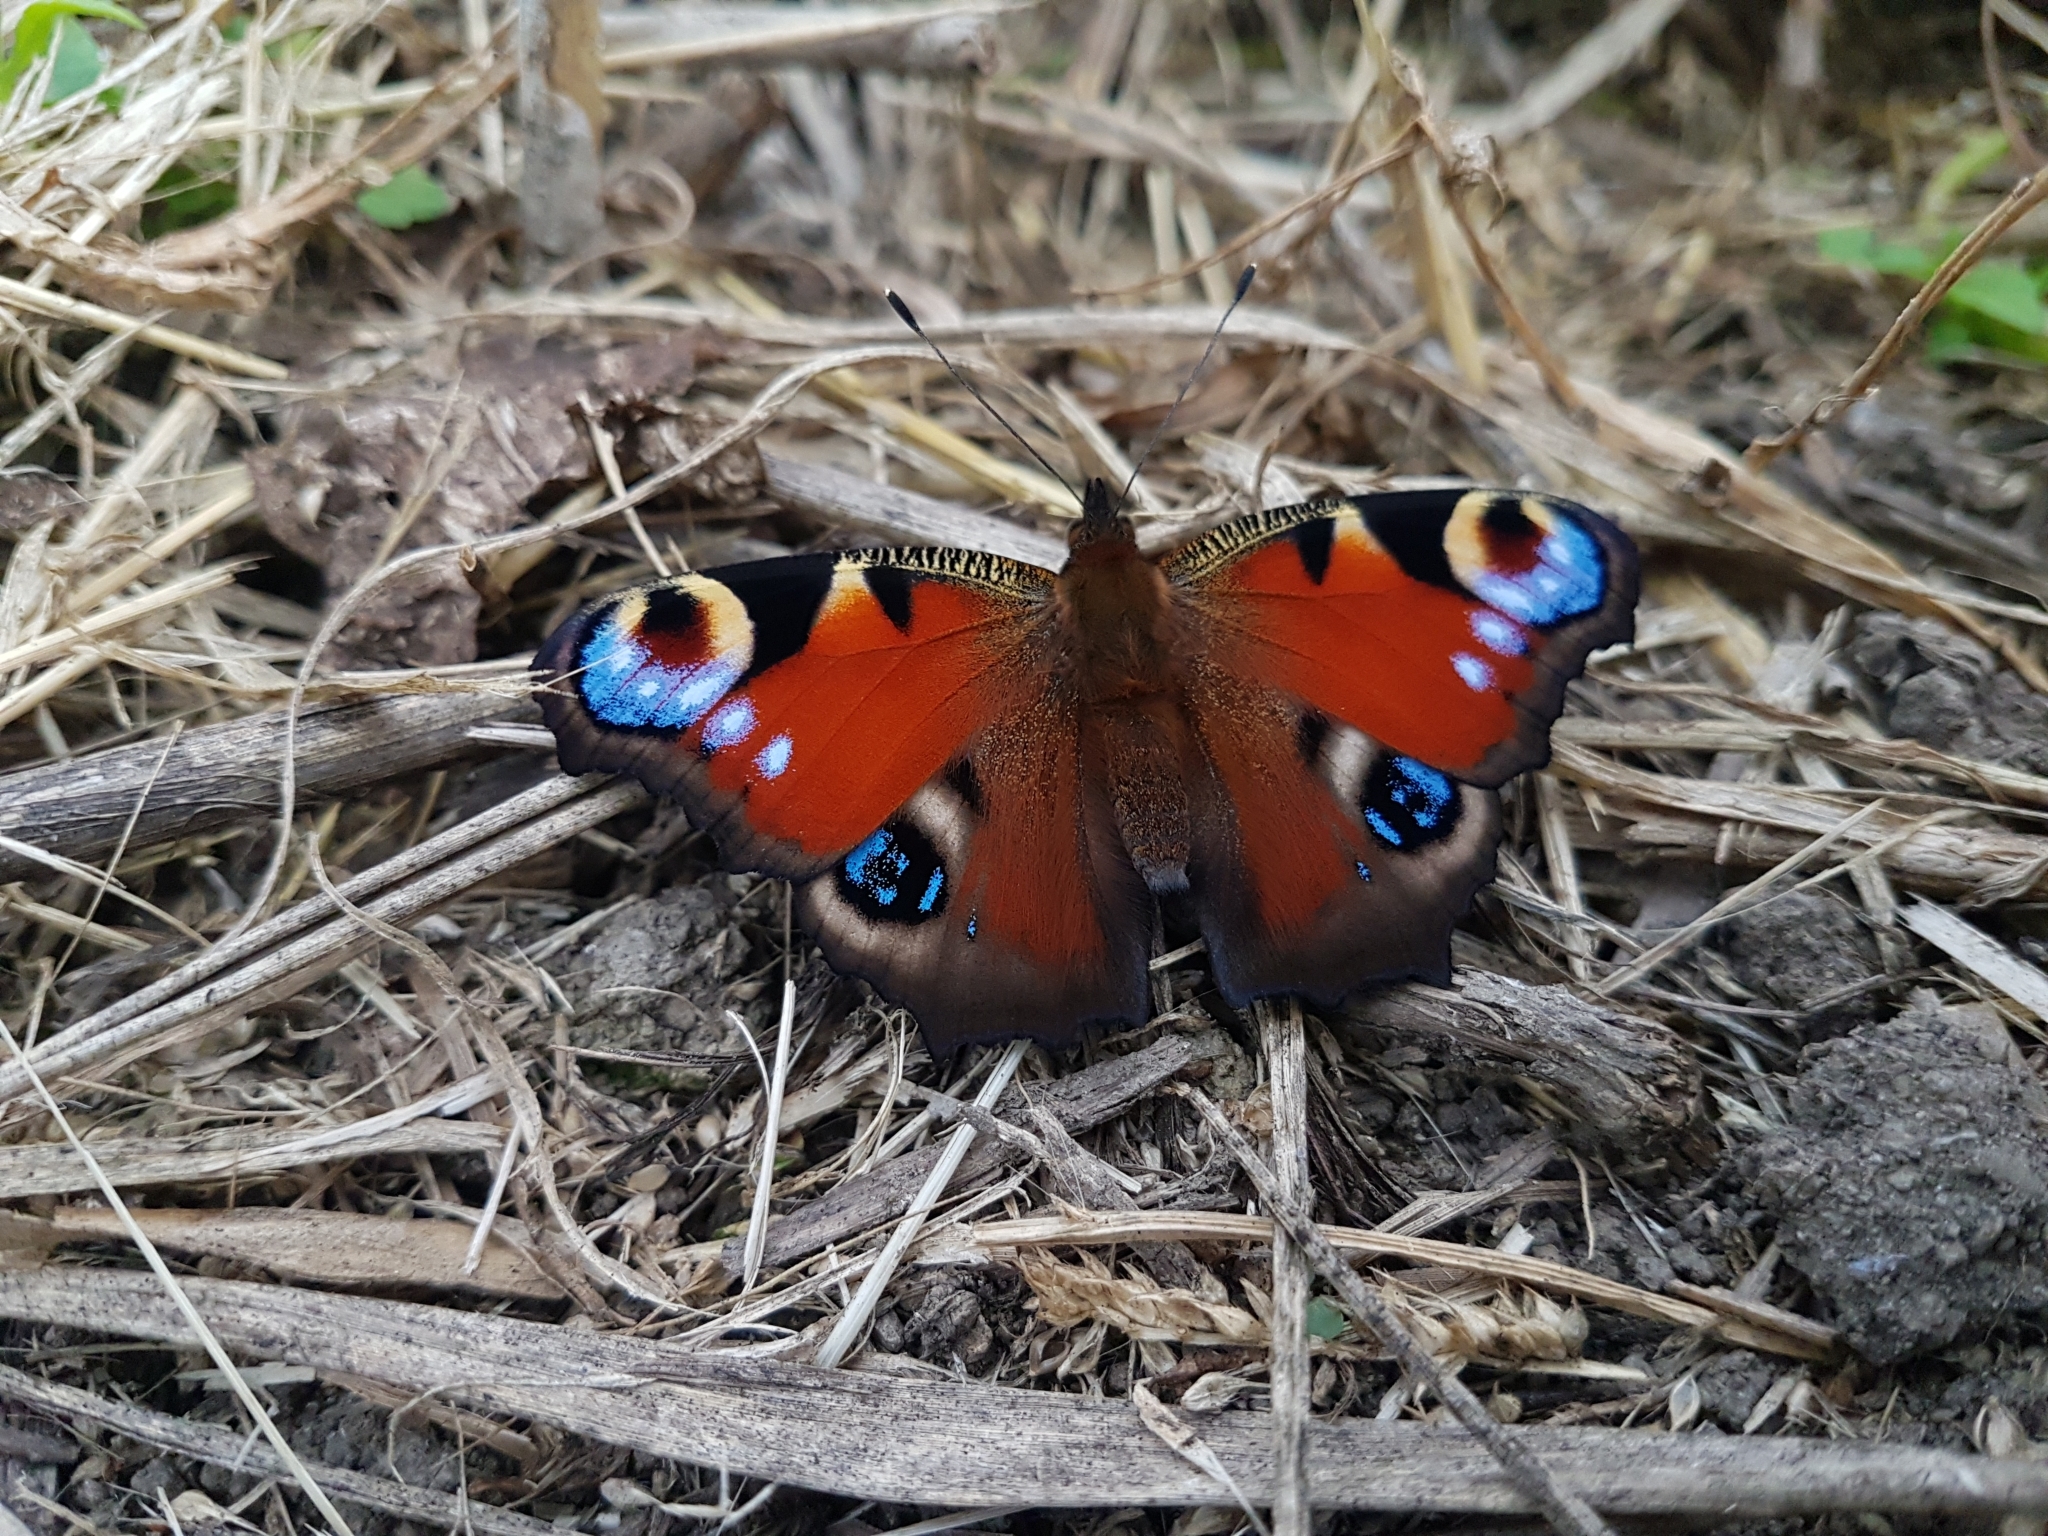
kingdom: Animalia
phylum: Arthropoda
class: Insecta
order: Lepidoptera
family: Nymphalidae
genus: Aglais
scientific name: Aglais io
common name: Peacock
